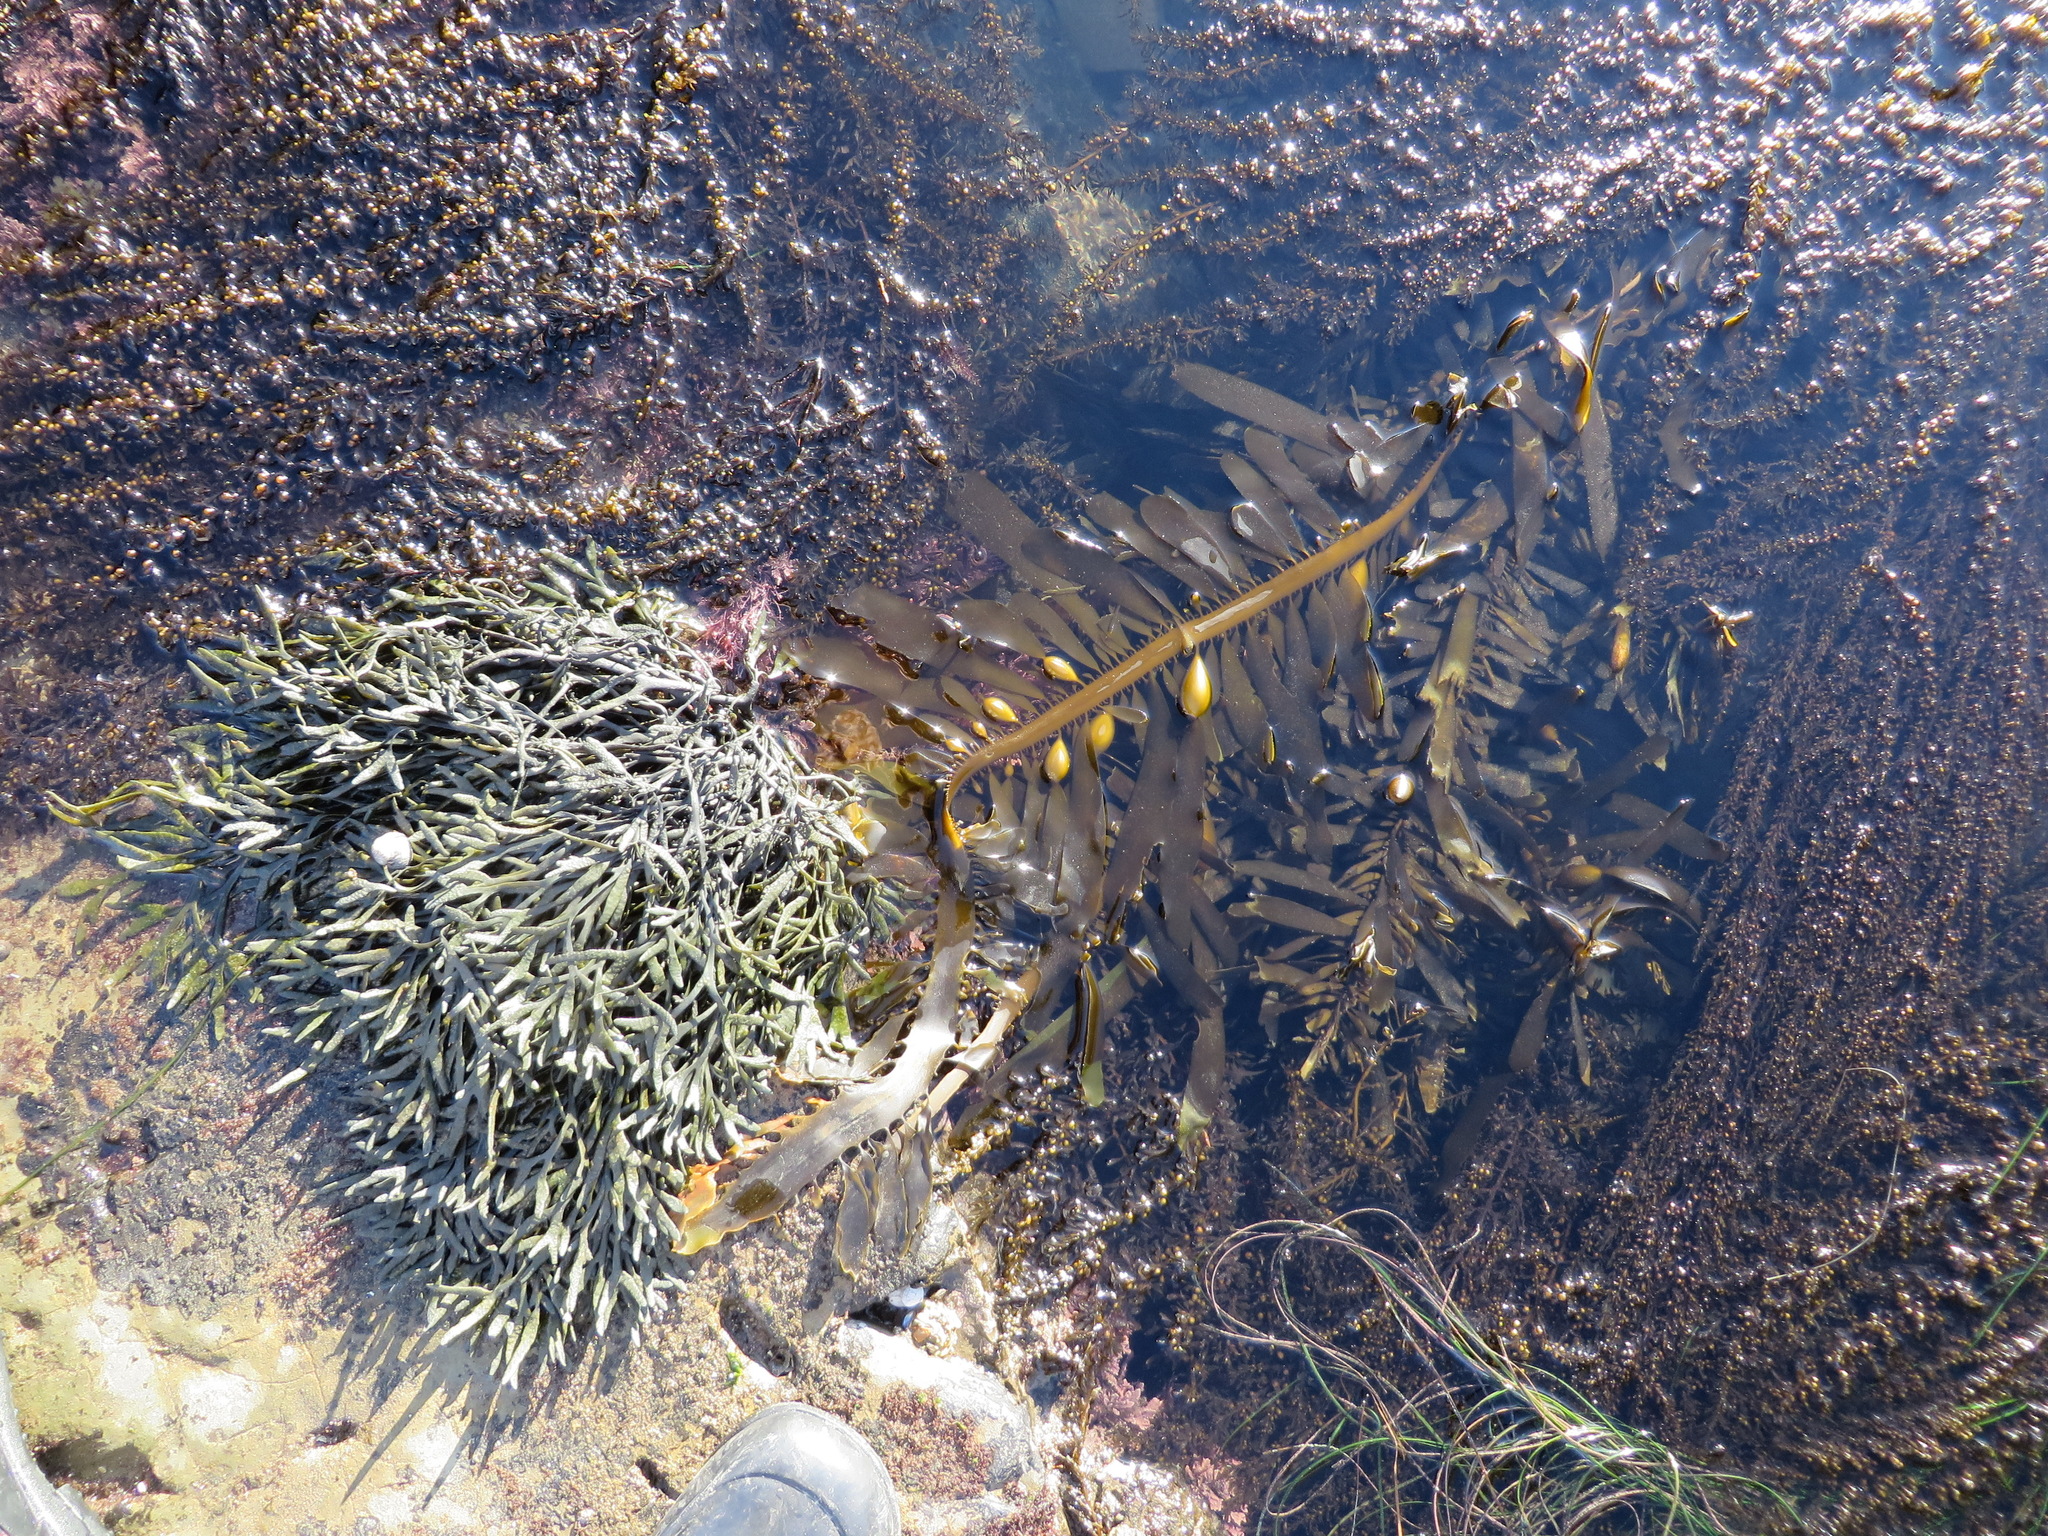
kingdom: Chromista
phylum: Ochrophyta
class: Phaeophyceae
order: Laminariales
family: Lessoniaceae
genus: Egregia
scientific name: Egregia menziesii
